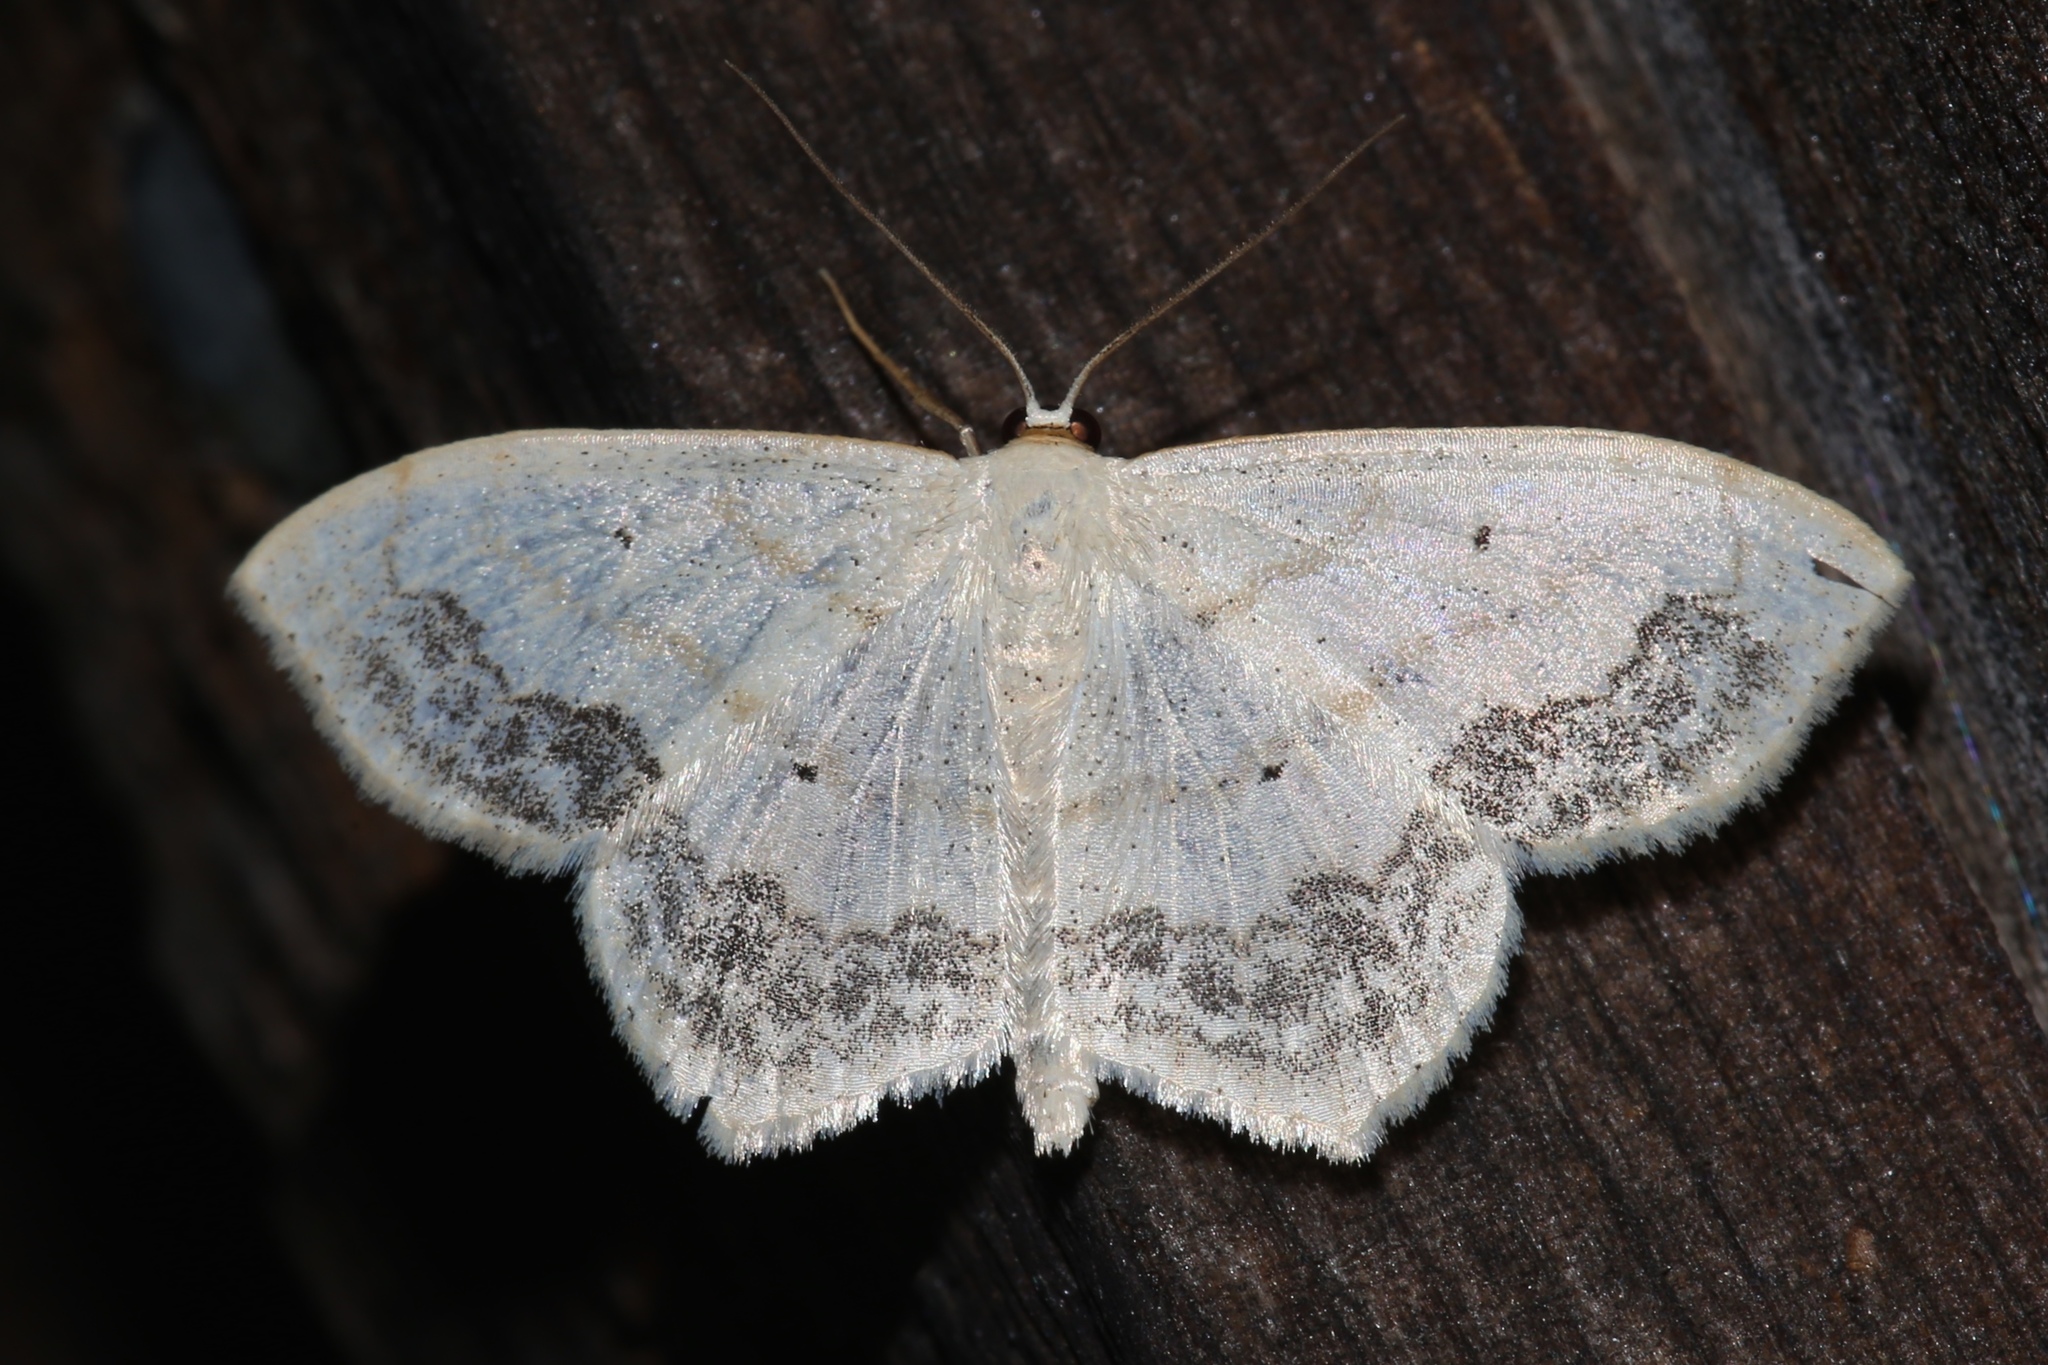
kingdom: Animalia
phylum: Arthropoda
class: Insecta
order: Lepidoptera
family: Geometridae
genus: Scopula
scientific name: Scopula limboundata
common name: Large lace border
